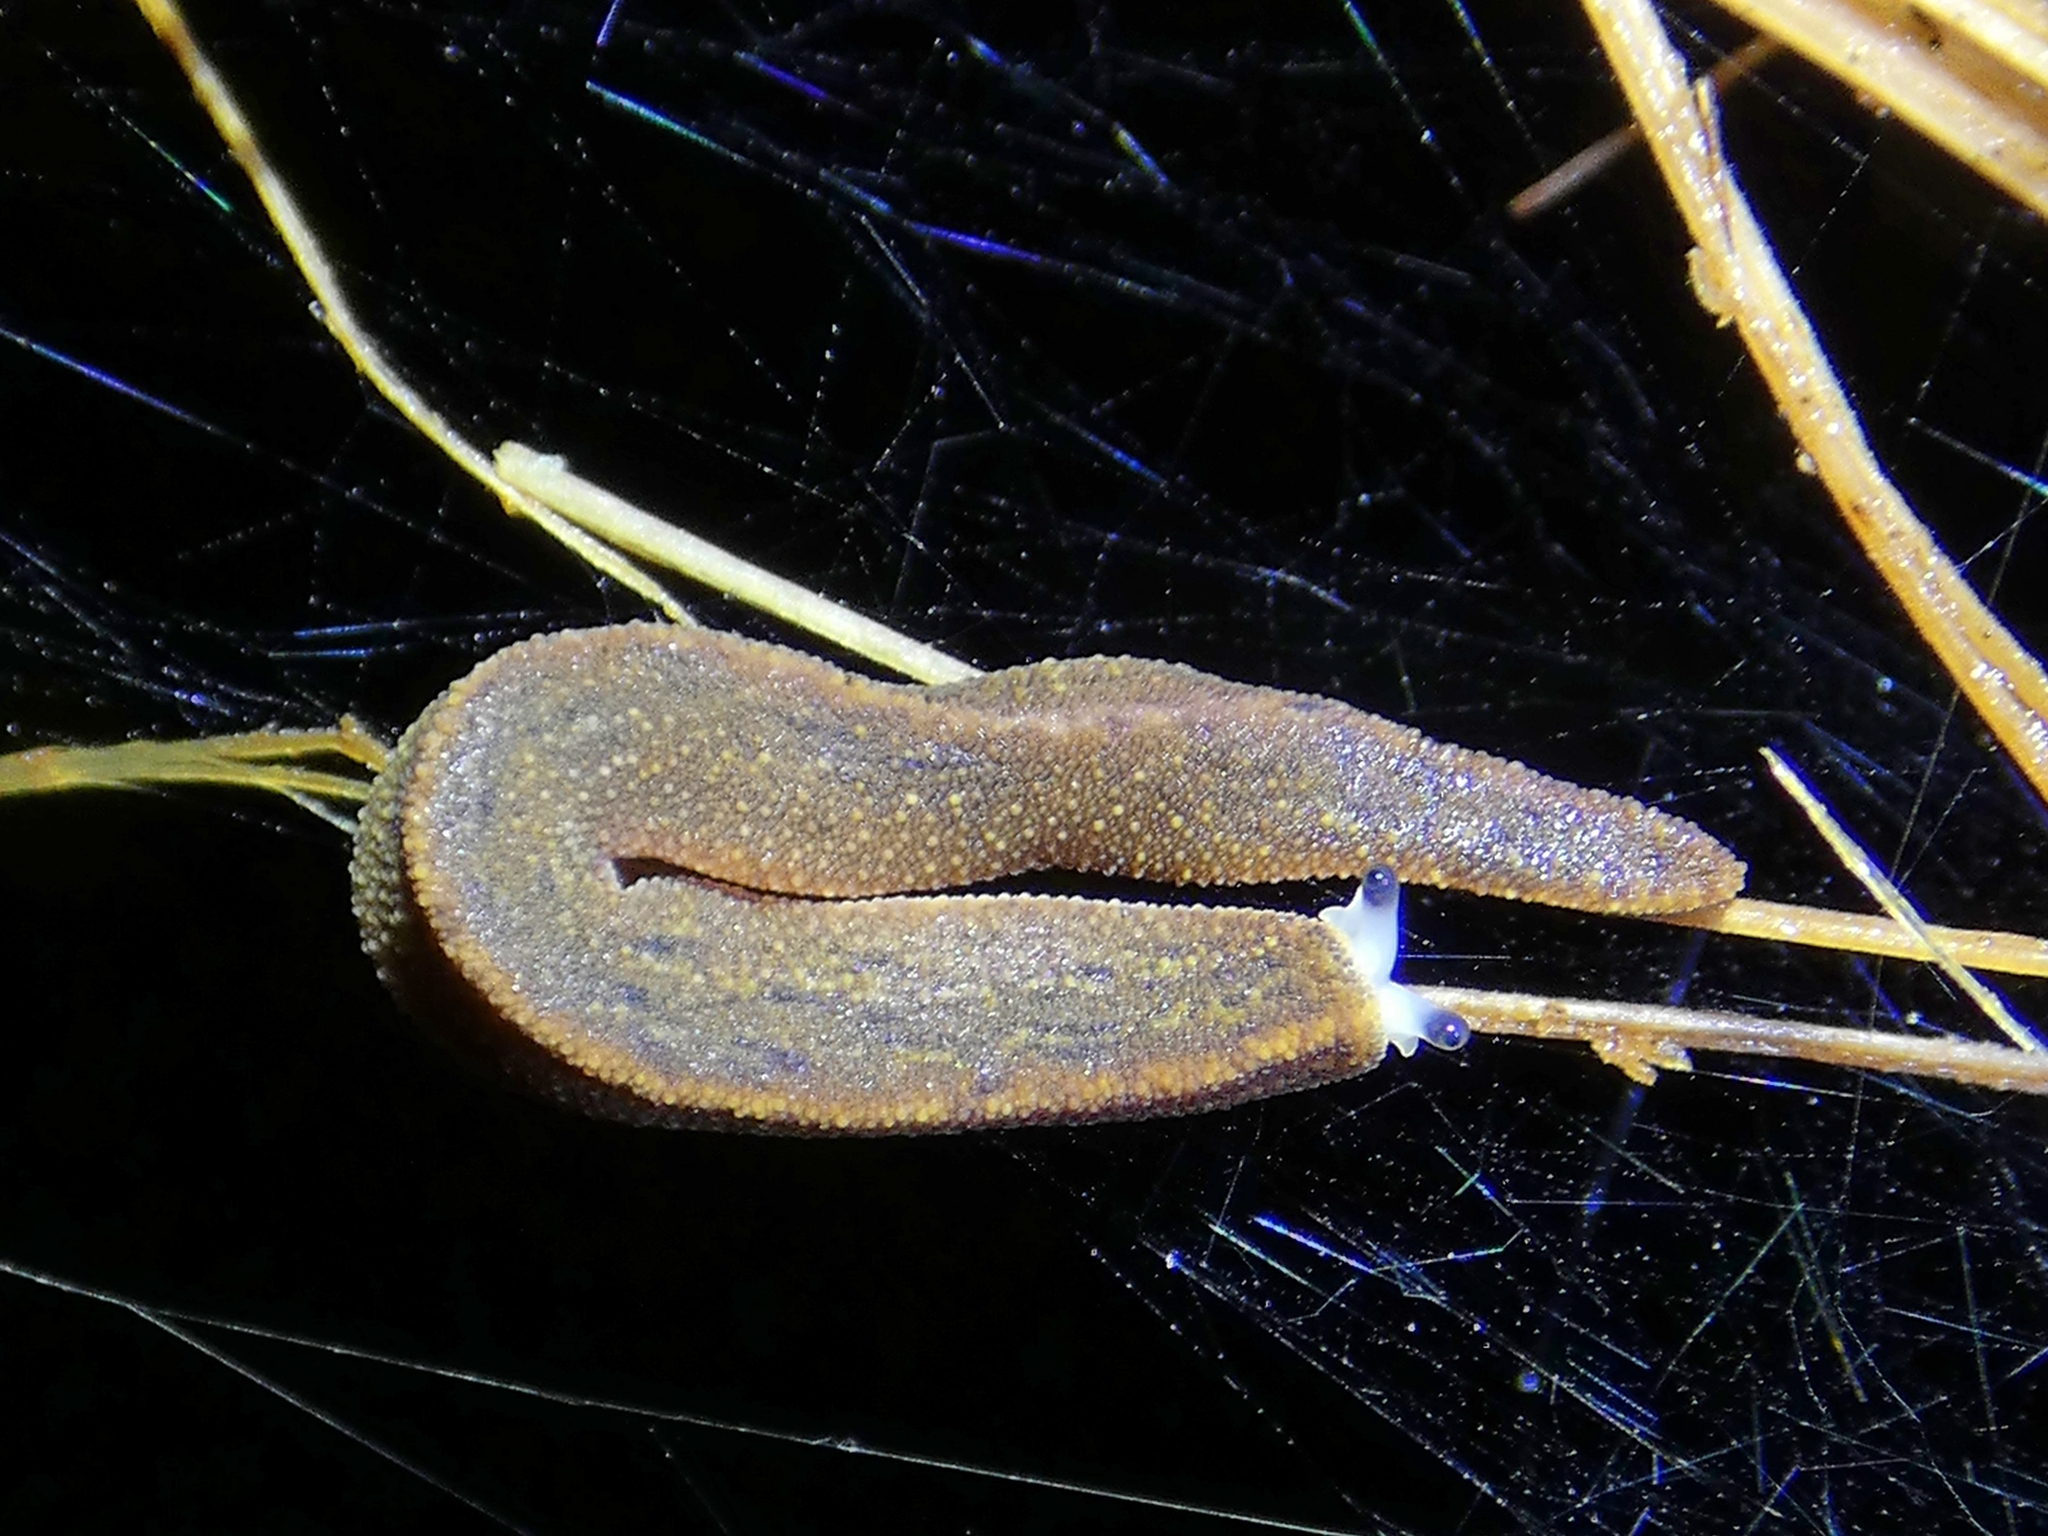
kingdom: Animalia
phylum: Mollusca
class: Gastropoda
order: Systellommatophora
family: Rathouisiidae
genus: Atopos
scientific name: Atopos australis
